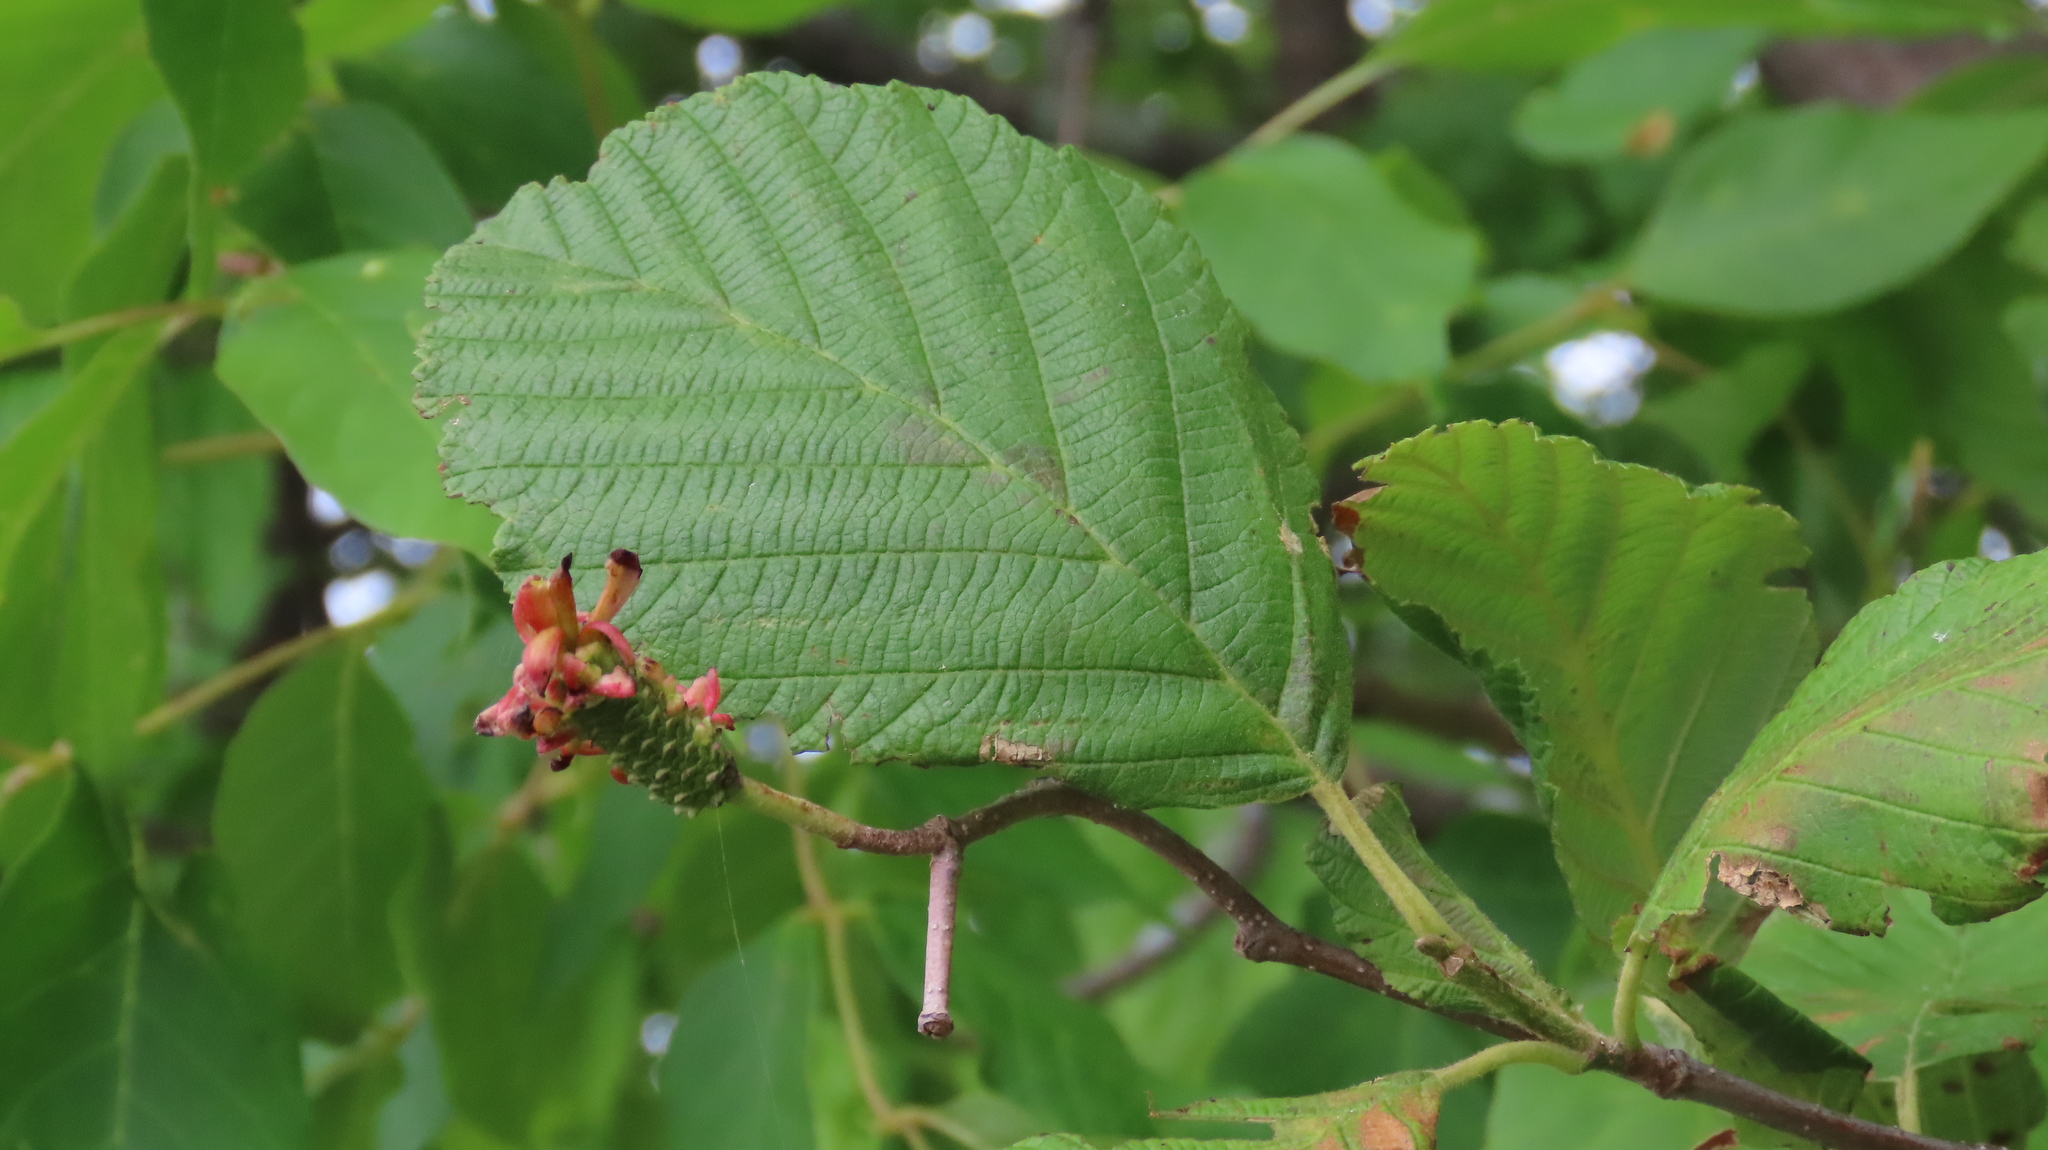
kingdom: Fungi
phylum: Ascomycota
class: Taphrinomycetes
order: Taphrinales
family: Taphrinaceae
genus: Taphrina
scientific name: Taphrina robinsoniana
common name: Eastern american alder tongue gall fungus
